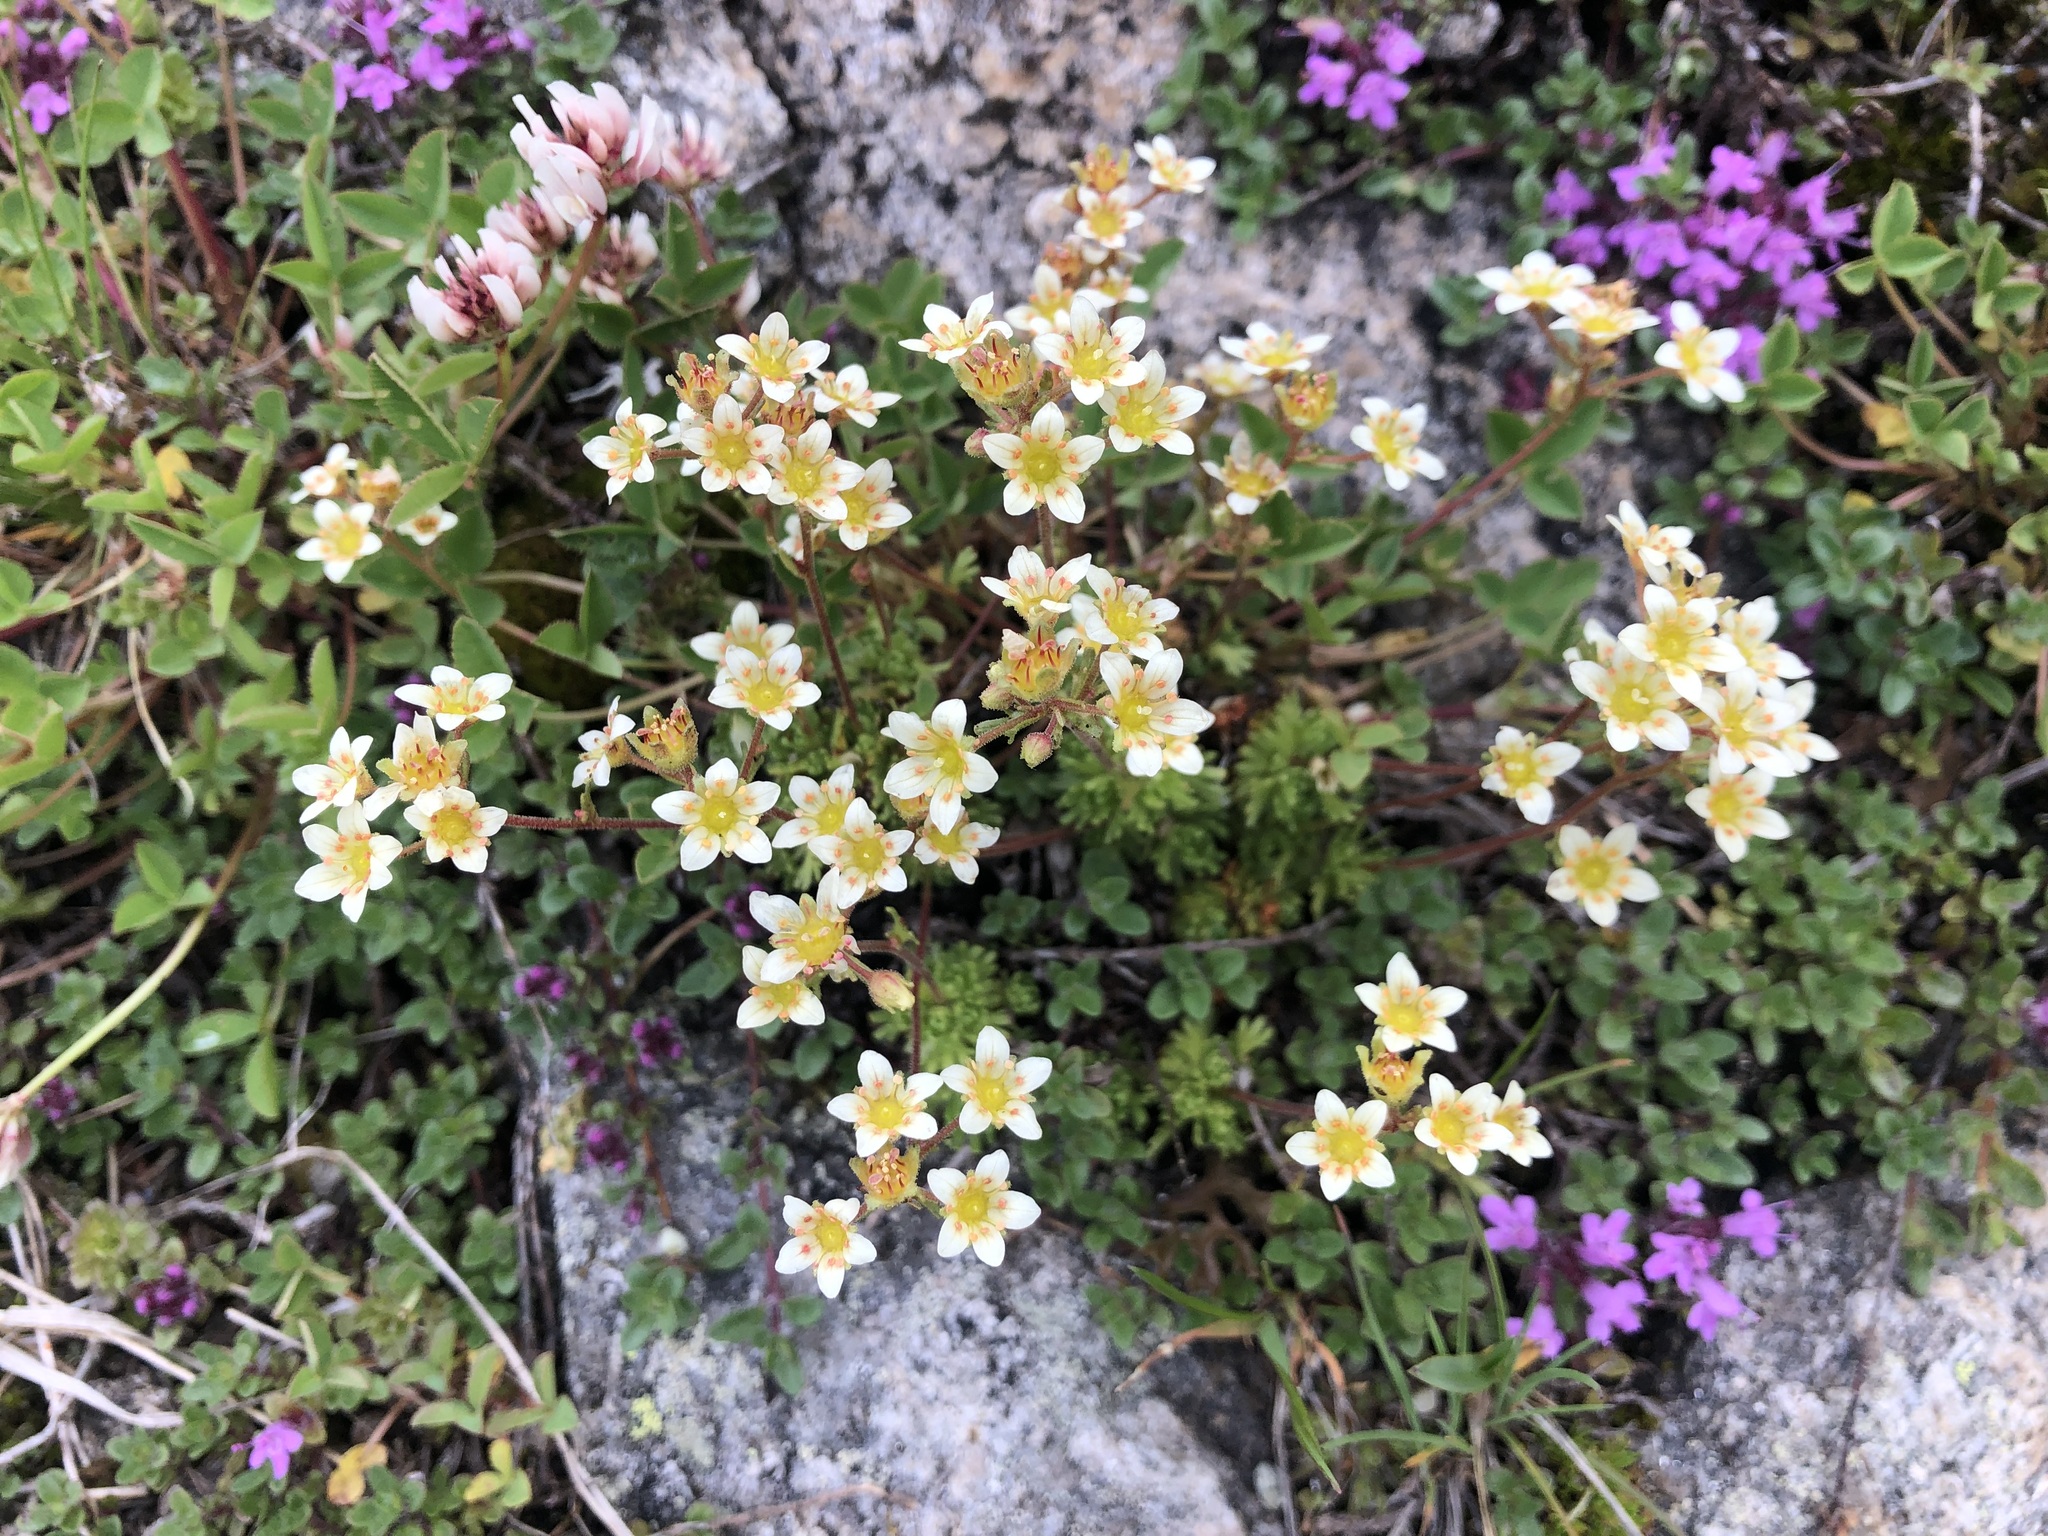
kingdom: Plantae
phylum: Tracheophyta
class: Magnoliopsida
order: Saxifragales
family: Saxifragaceae
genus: Saxifraga
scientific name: Saxifraga exarata
